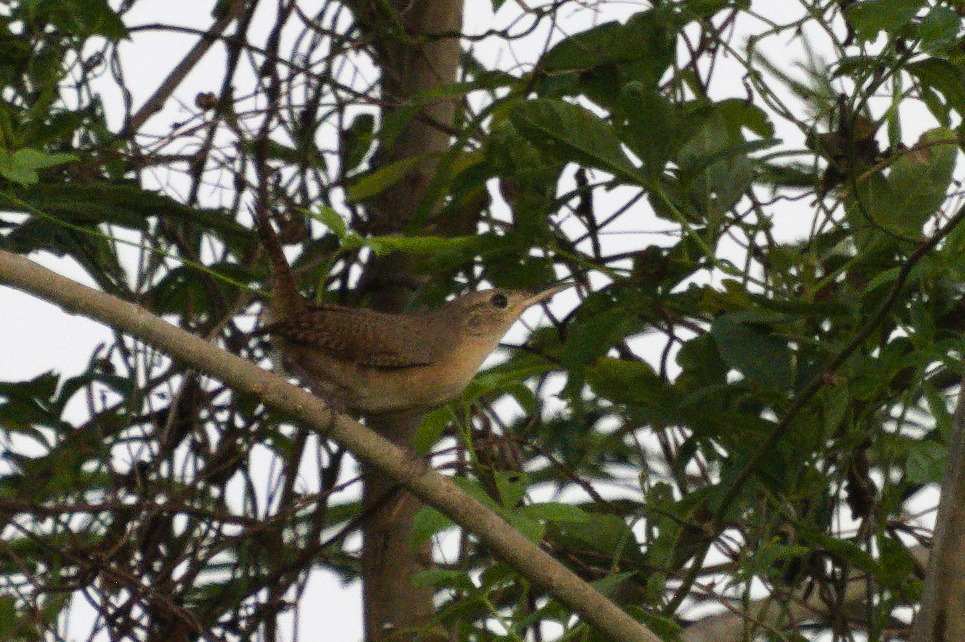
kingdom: Animalia
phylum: Chordata
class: Aves
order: Passeriformes
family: Troglodytidae
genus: Troglodytes
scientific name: Troglodytes aedon
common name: House wren
